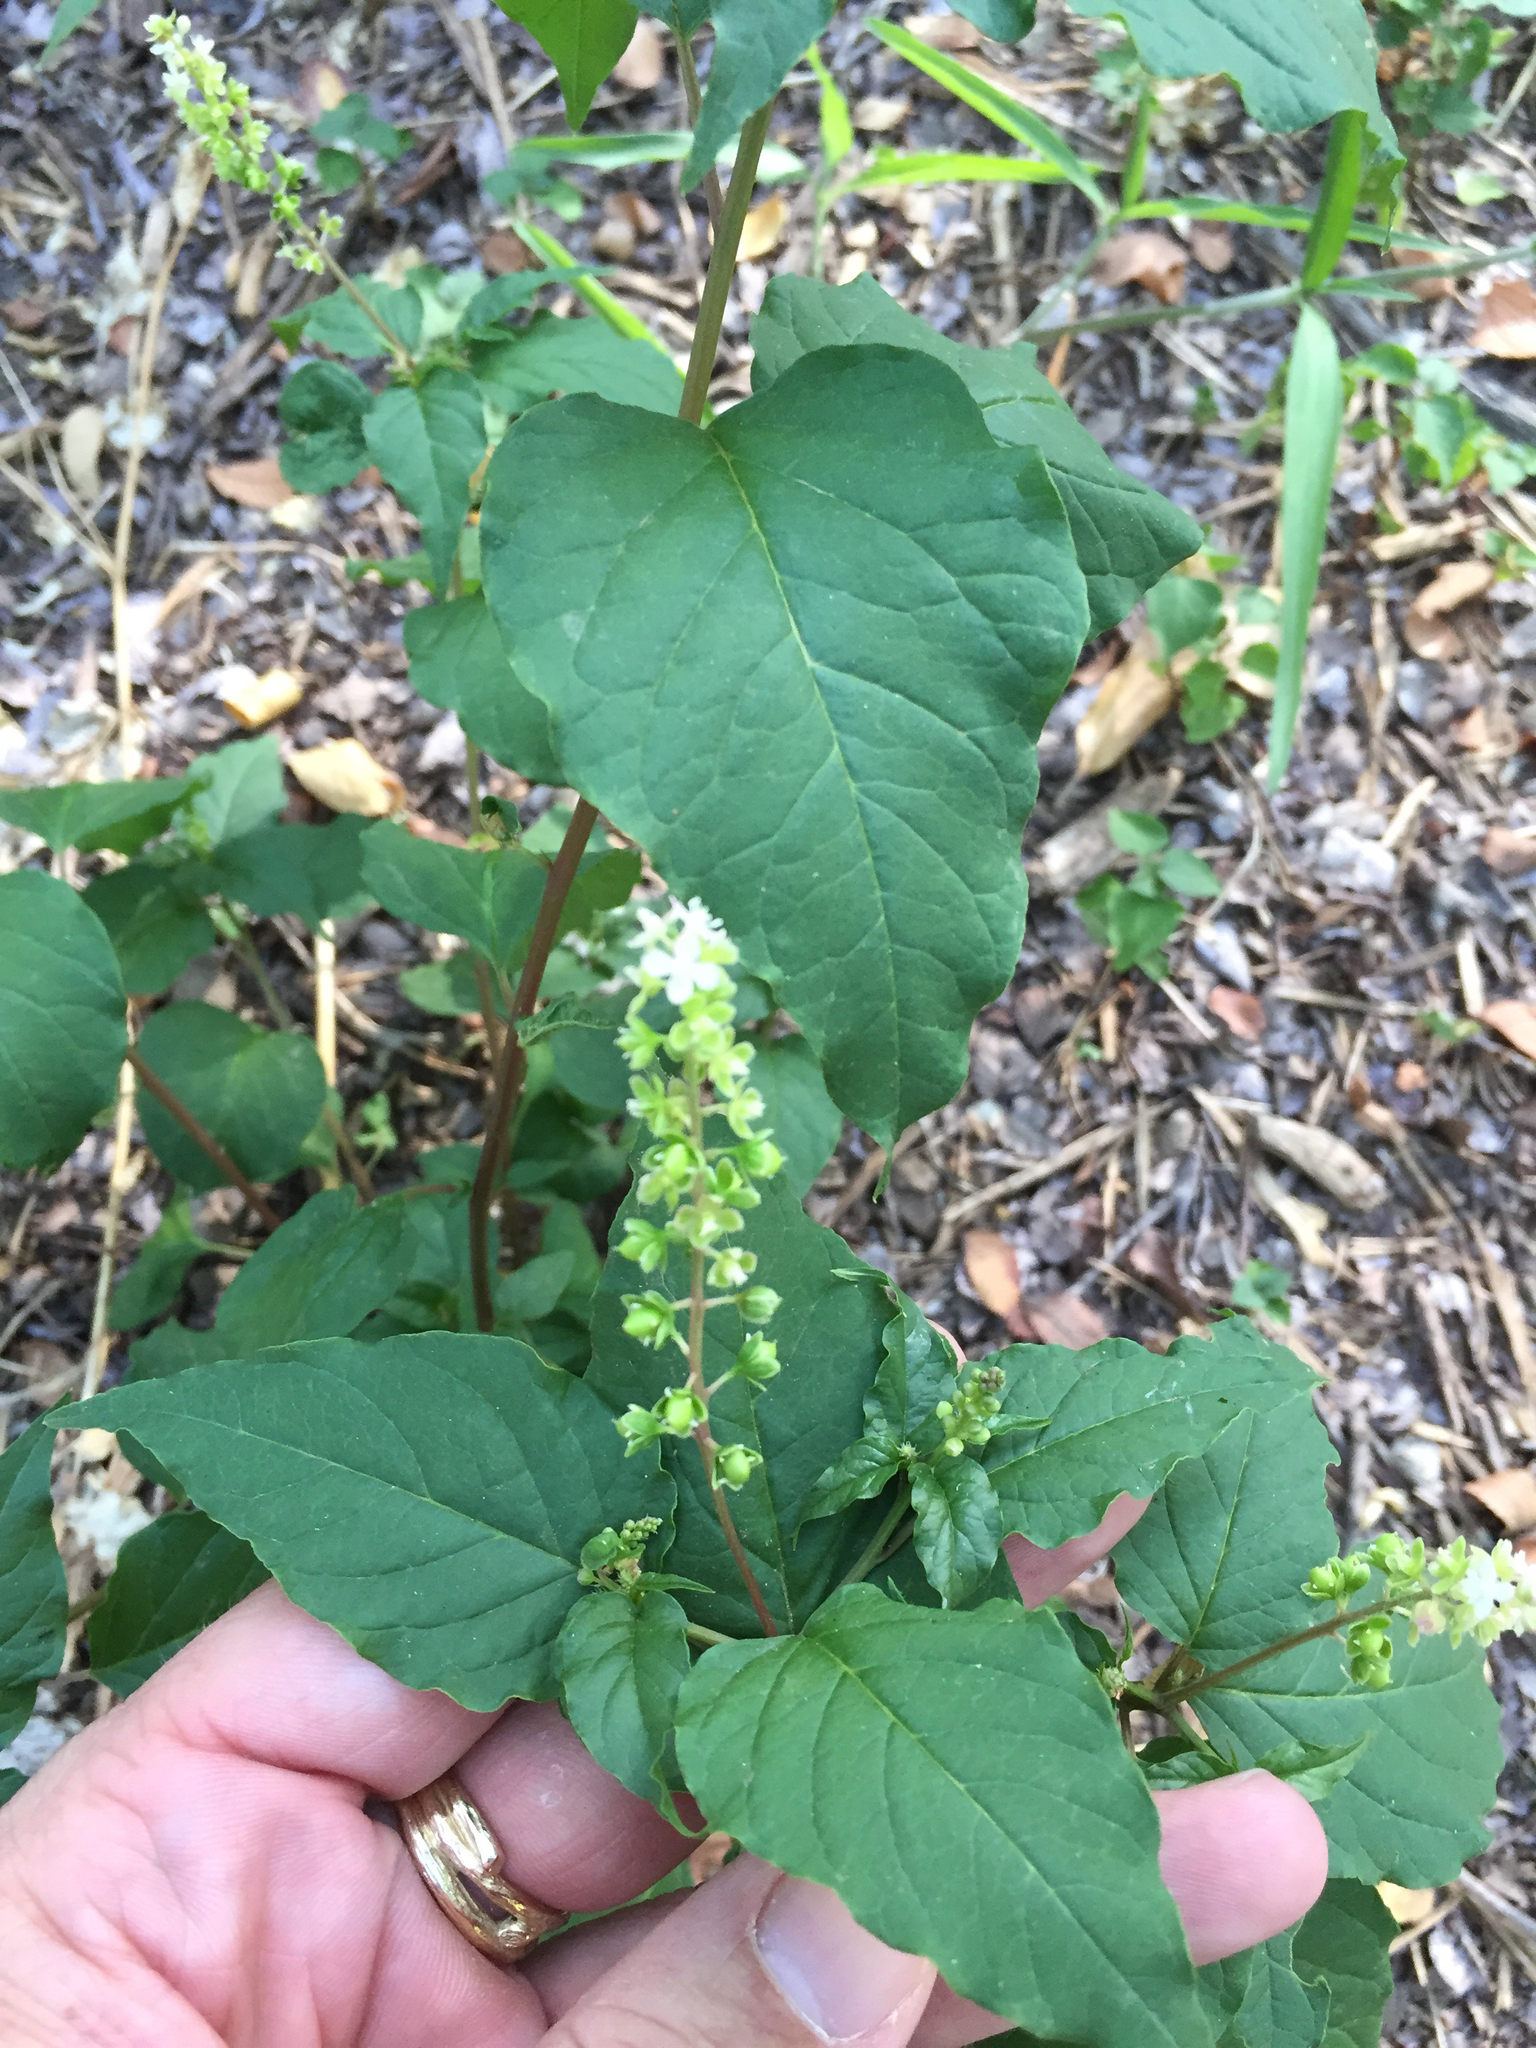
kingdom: Plantae
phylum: Tracheophyta
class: Magnoliopsida
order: Caryophyllales
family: Phytolaccaceae
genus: Rivina
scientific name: Rivina humilis
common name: Rougeplant
